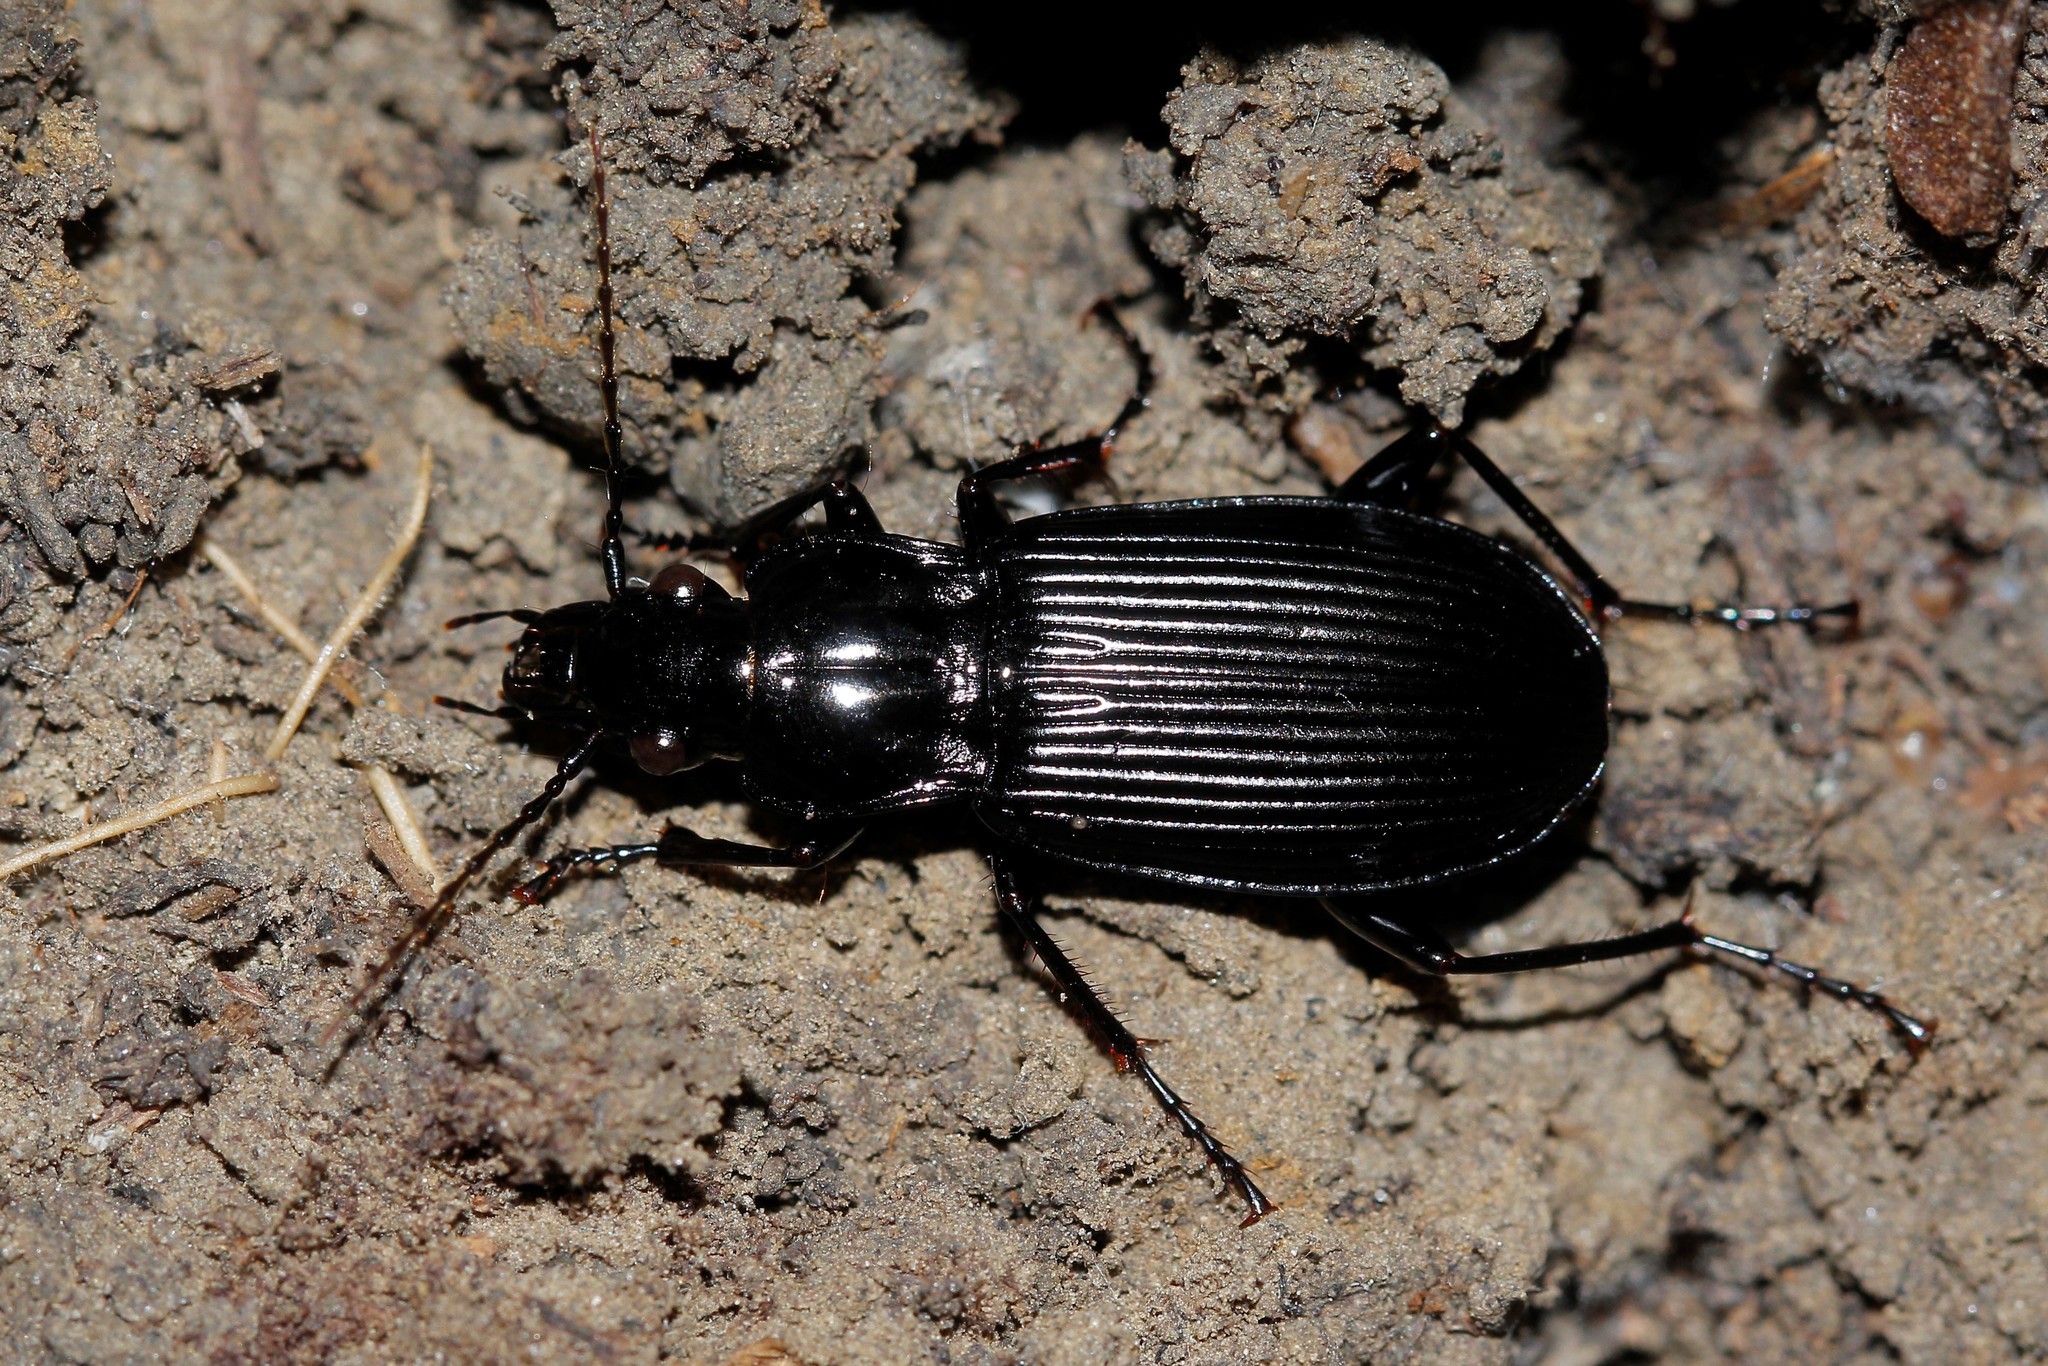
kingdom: Animalia
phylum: Arthropoda
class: Insecta
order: Coleoptera
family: Carabidae
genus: Pterostichus
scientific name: Pterostichus niger
